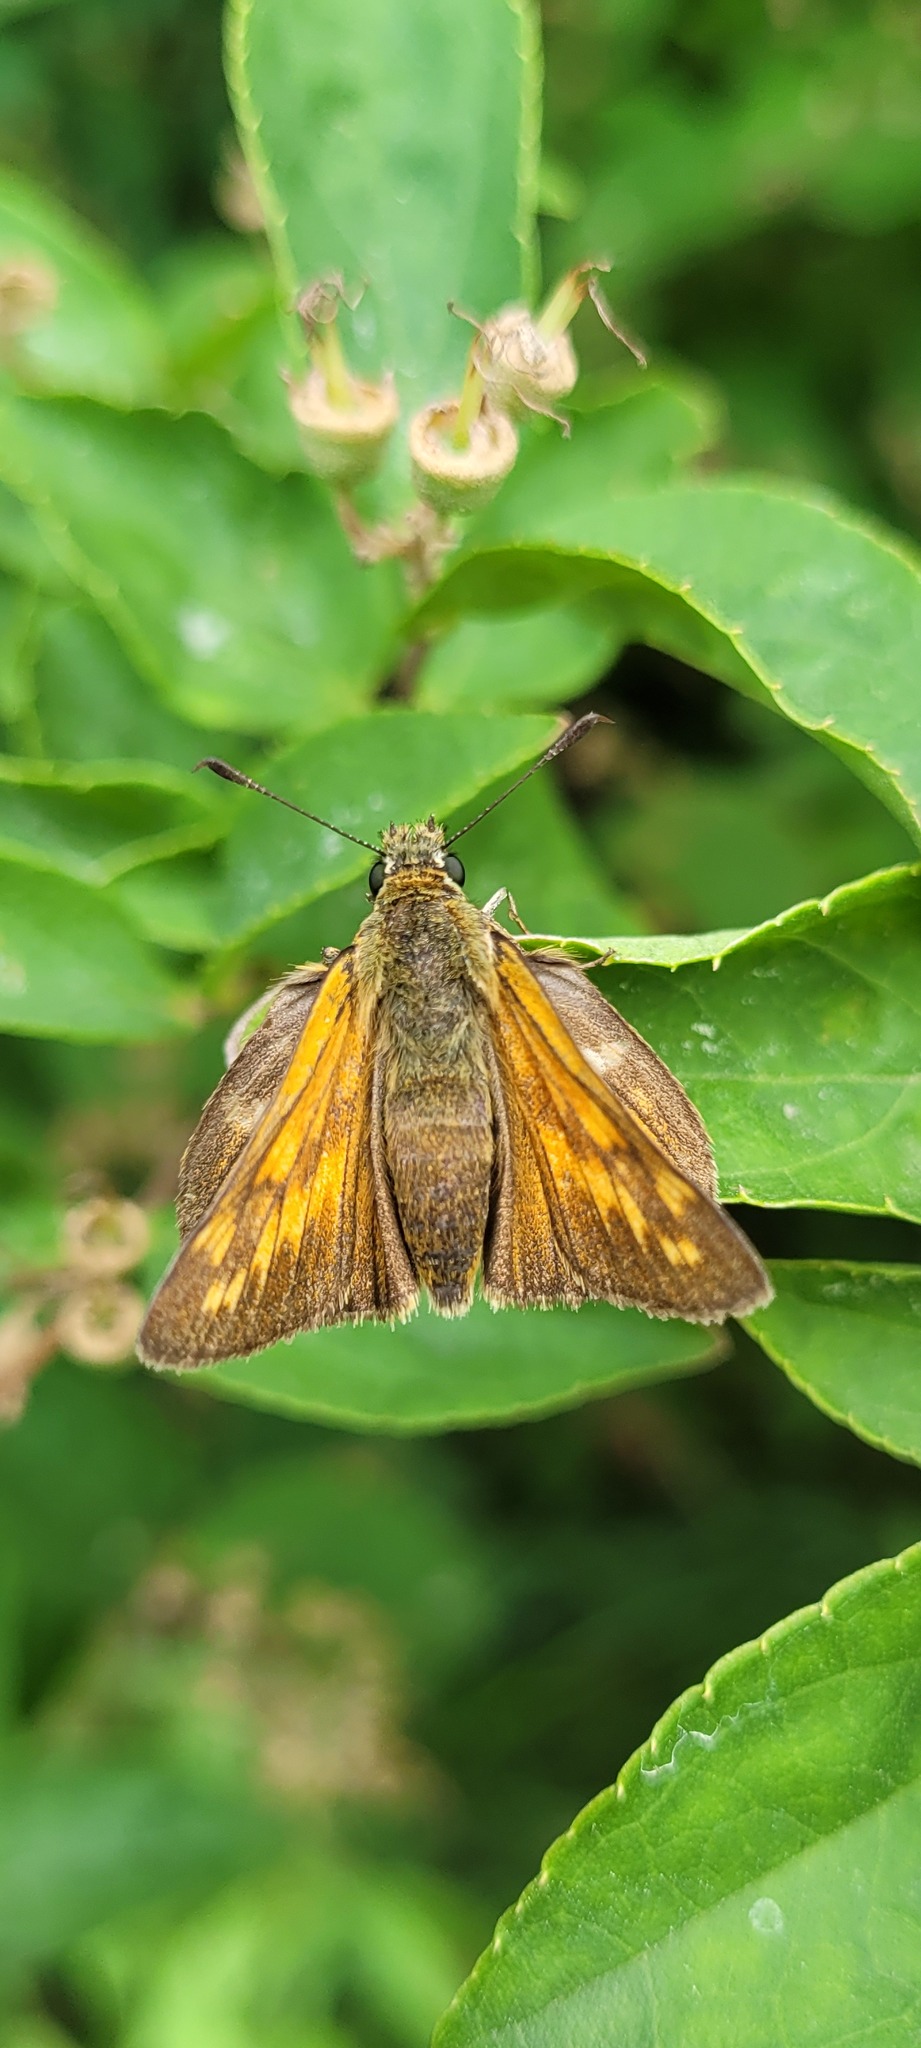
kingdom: Animalia
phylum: Arthropoda
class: Insecta
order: Lepidoptera
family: Hesperiidae
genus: Ochlodes
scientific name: Ochlodes venata
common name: Large skipper
